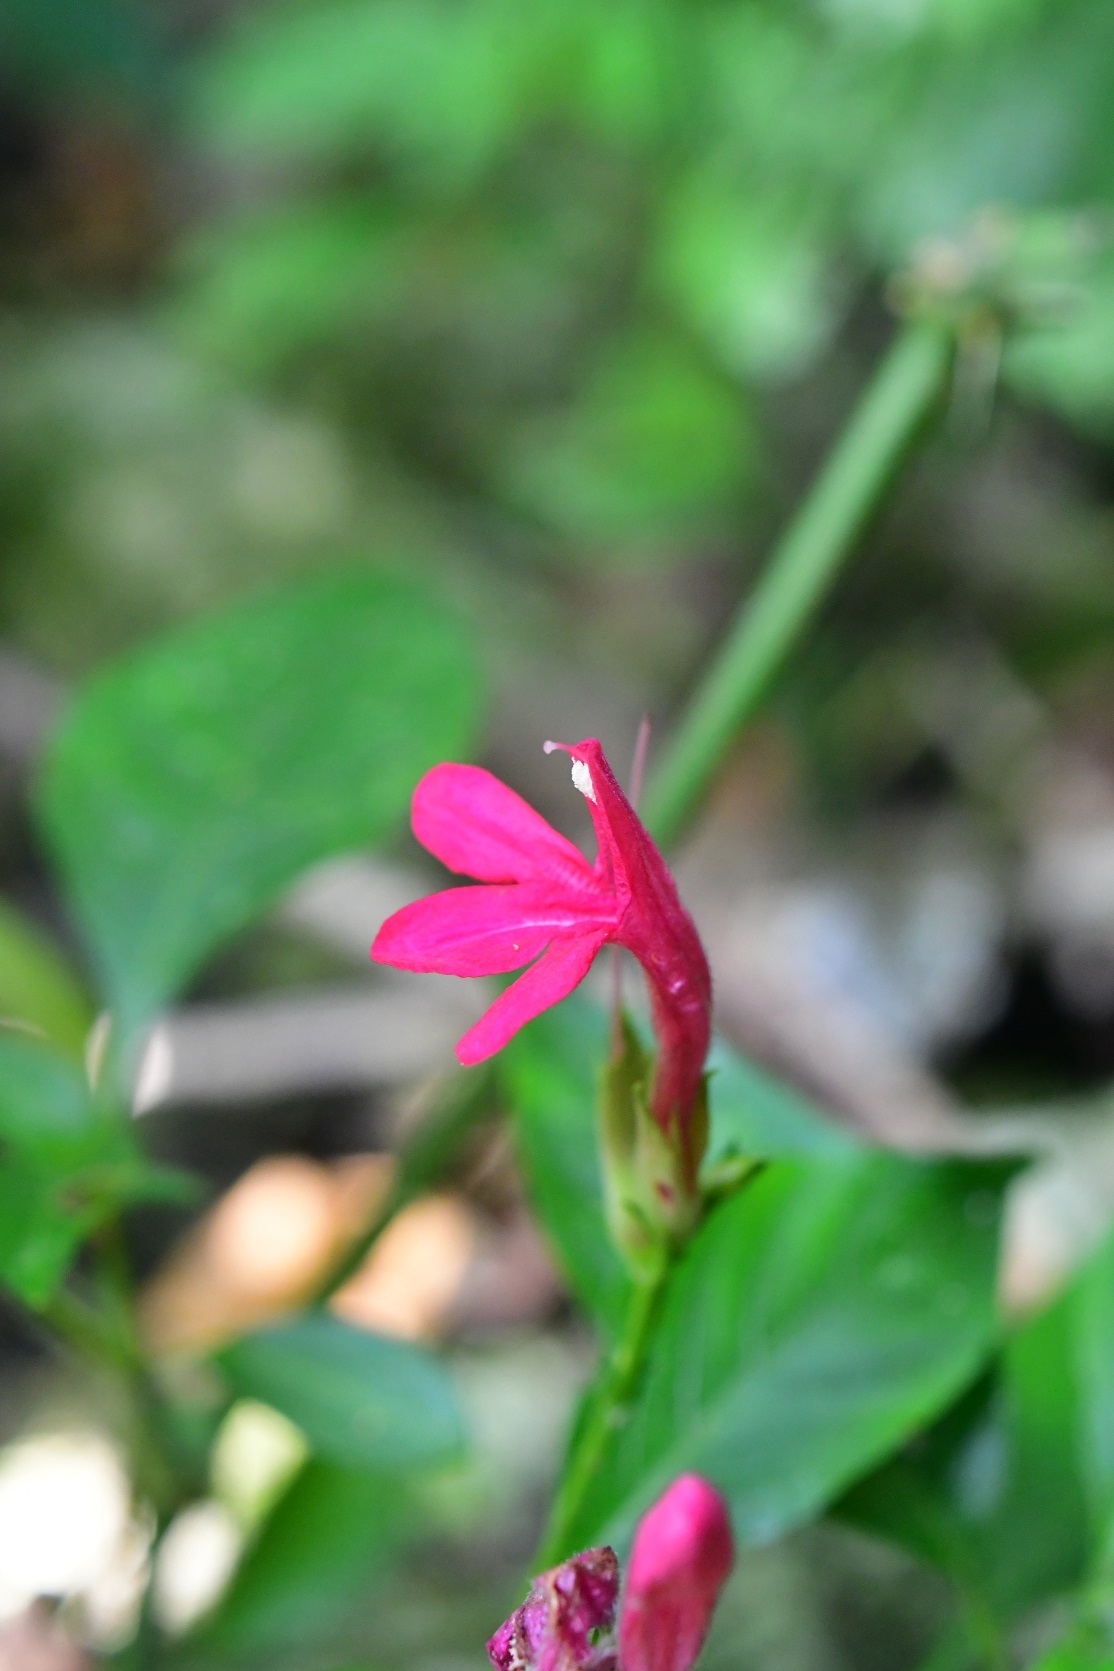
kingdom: Plantae
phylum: Tracheophyta
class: Magnoliopsida
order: Lamiales
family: Acanthaceae
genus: Lepidagathis
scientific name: Lepidagathis chiapensis
